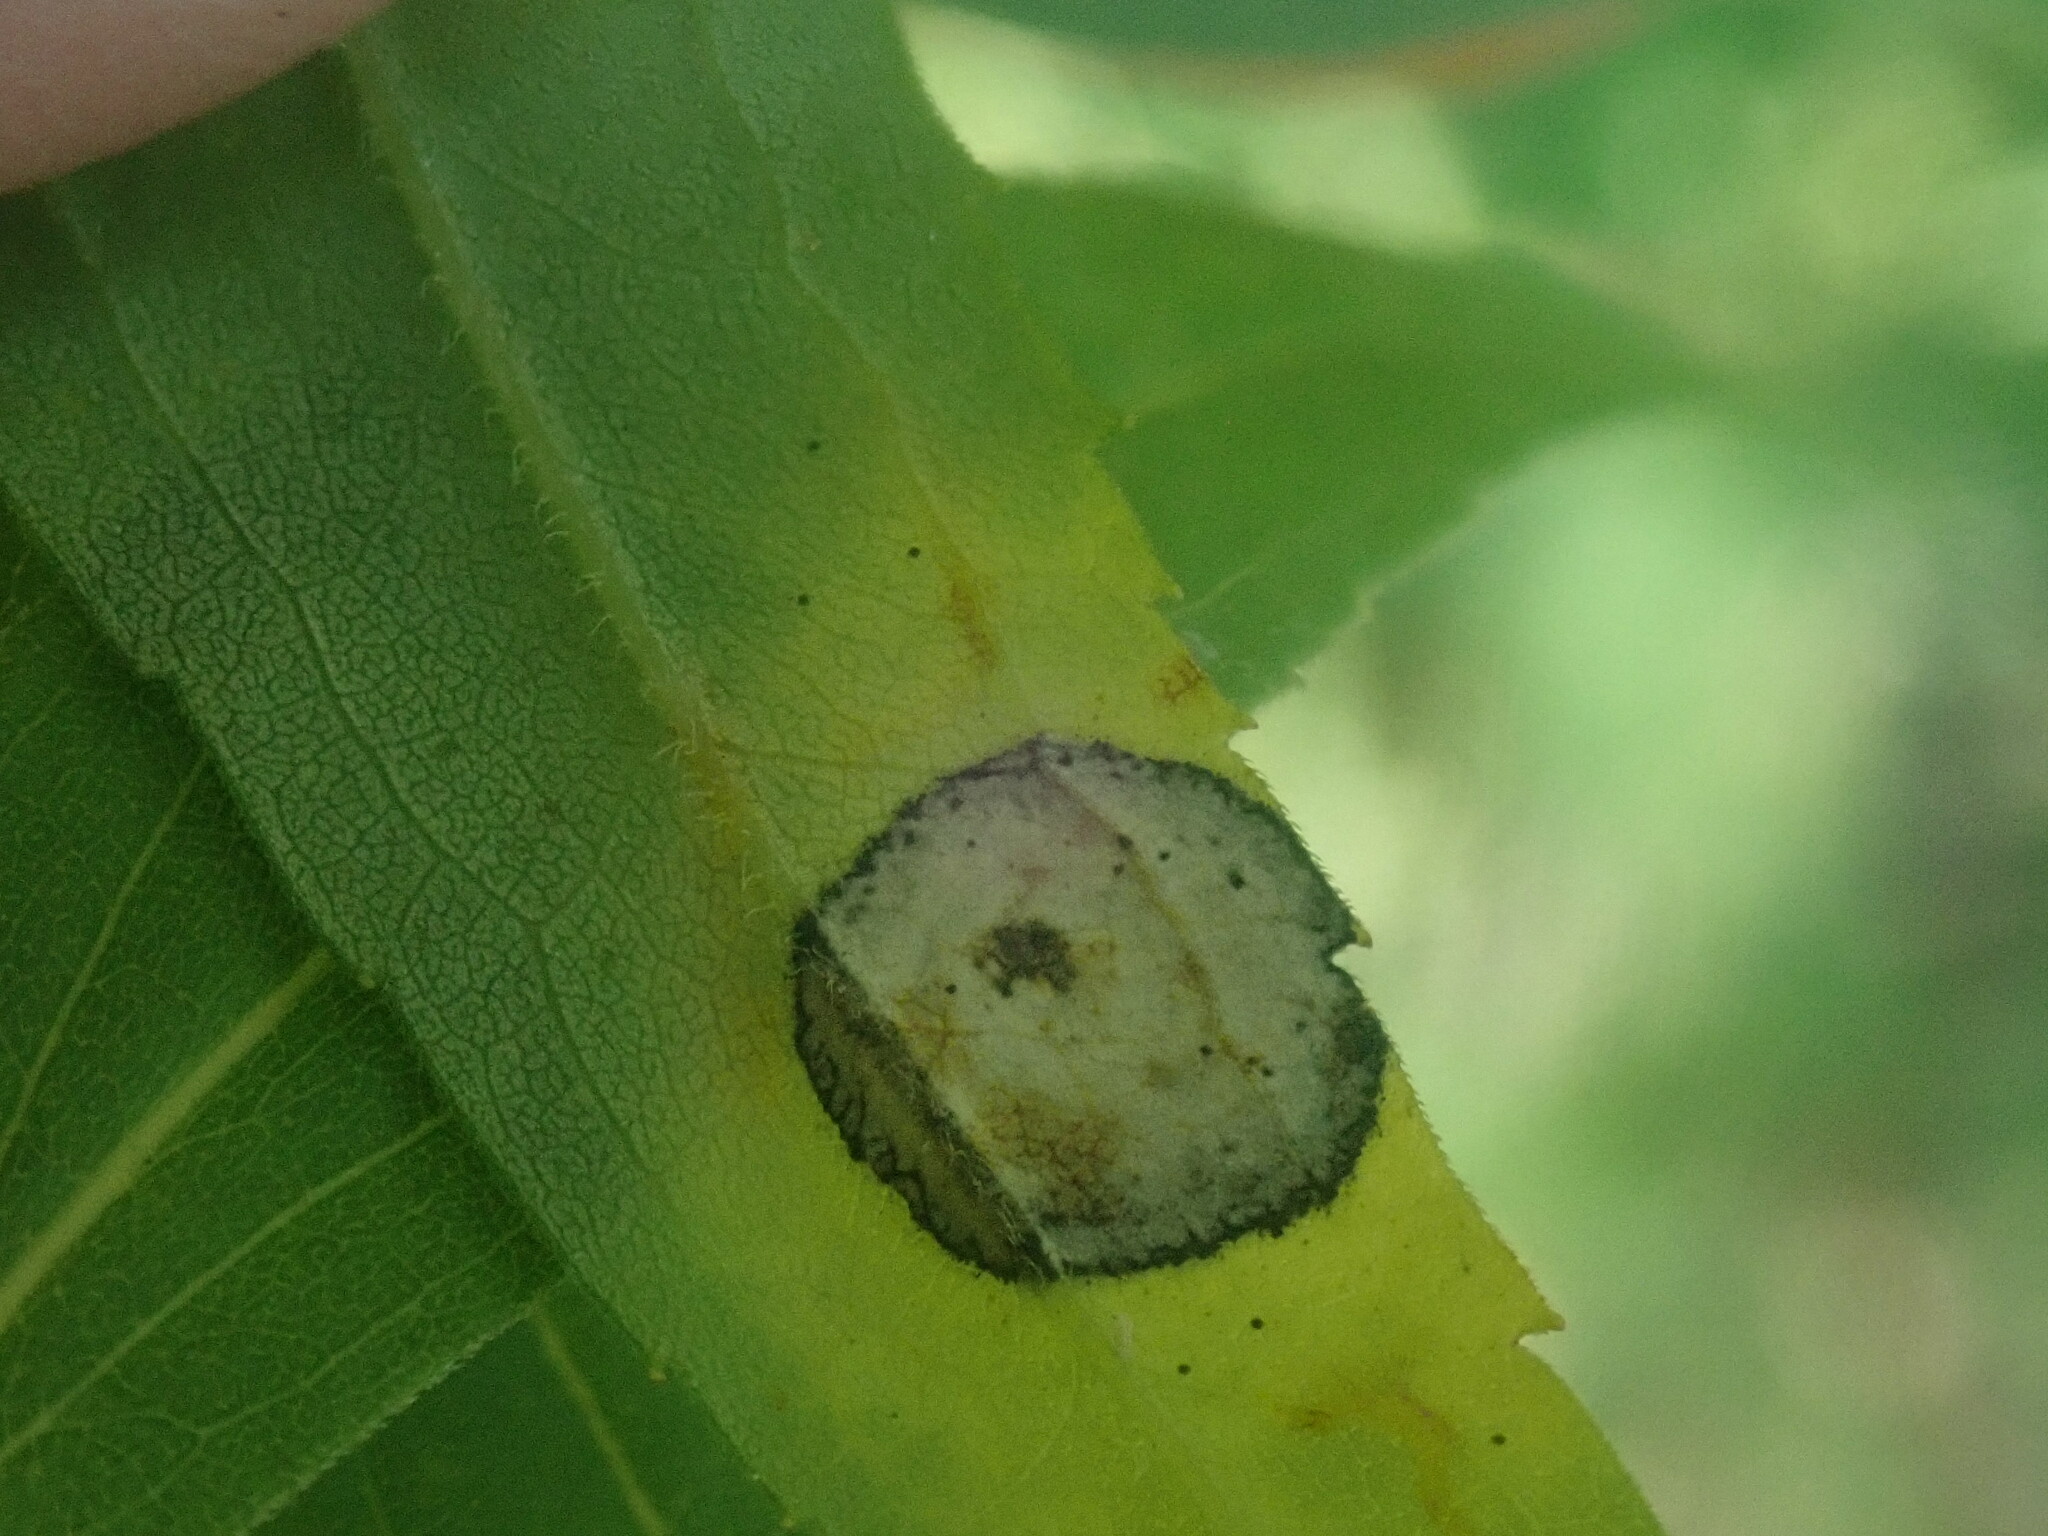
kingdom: Animalia
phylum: Arthropoda
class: Insecta
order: Diptera
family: Cecidomyiidae
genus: Asteromyia
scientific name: Asteromyia carbonifera
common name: Carbonifera goldenrod gall midge
